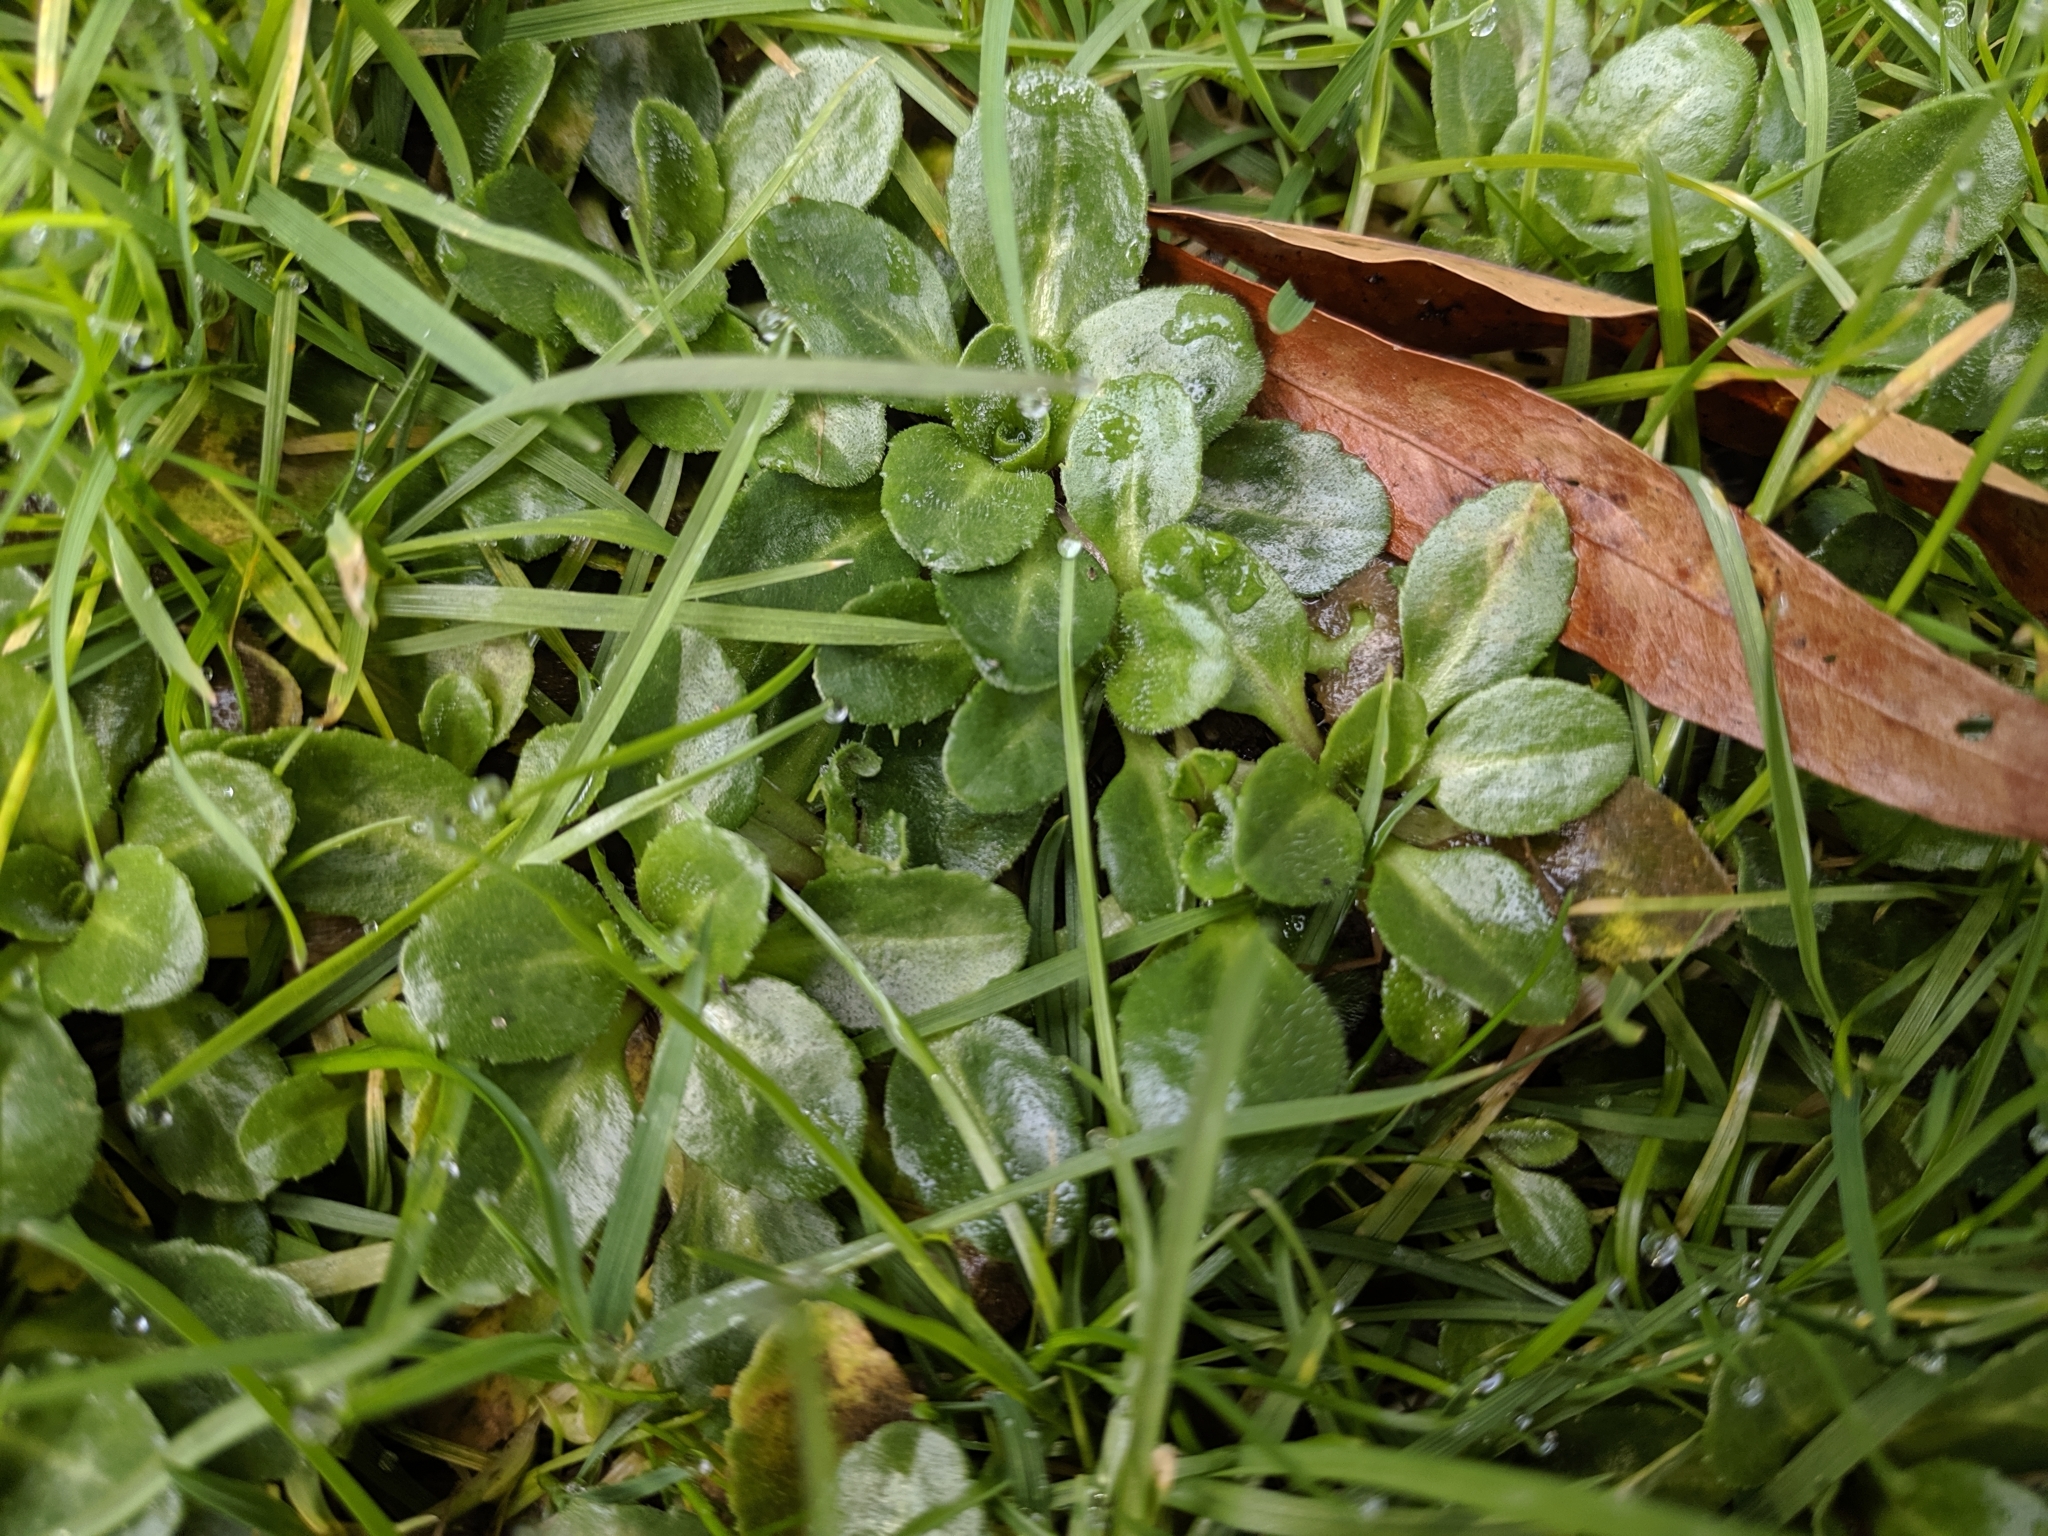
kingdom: Plantae
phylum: Tracheophyta
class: Magnoliopsida
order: Asterales
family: Asteraceae
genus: Bellis
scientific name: Bellis perennis
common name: Lawndaisy
